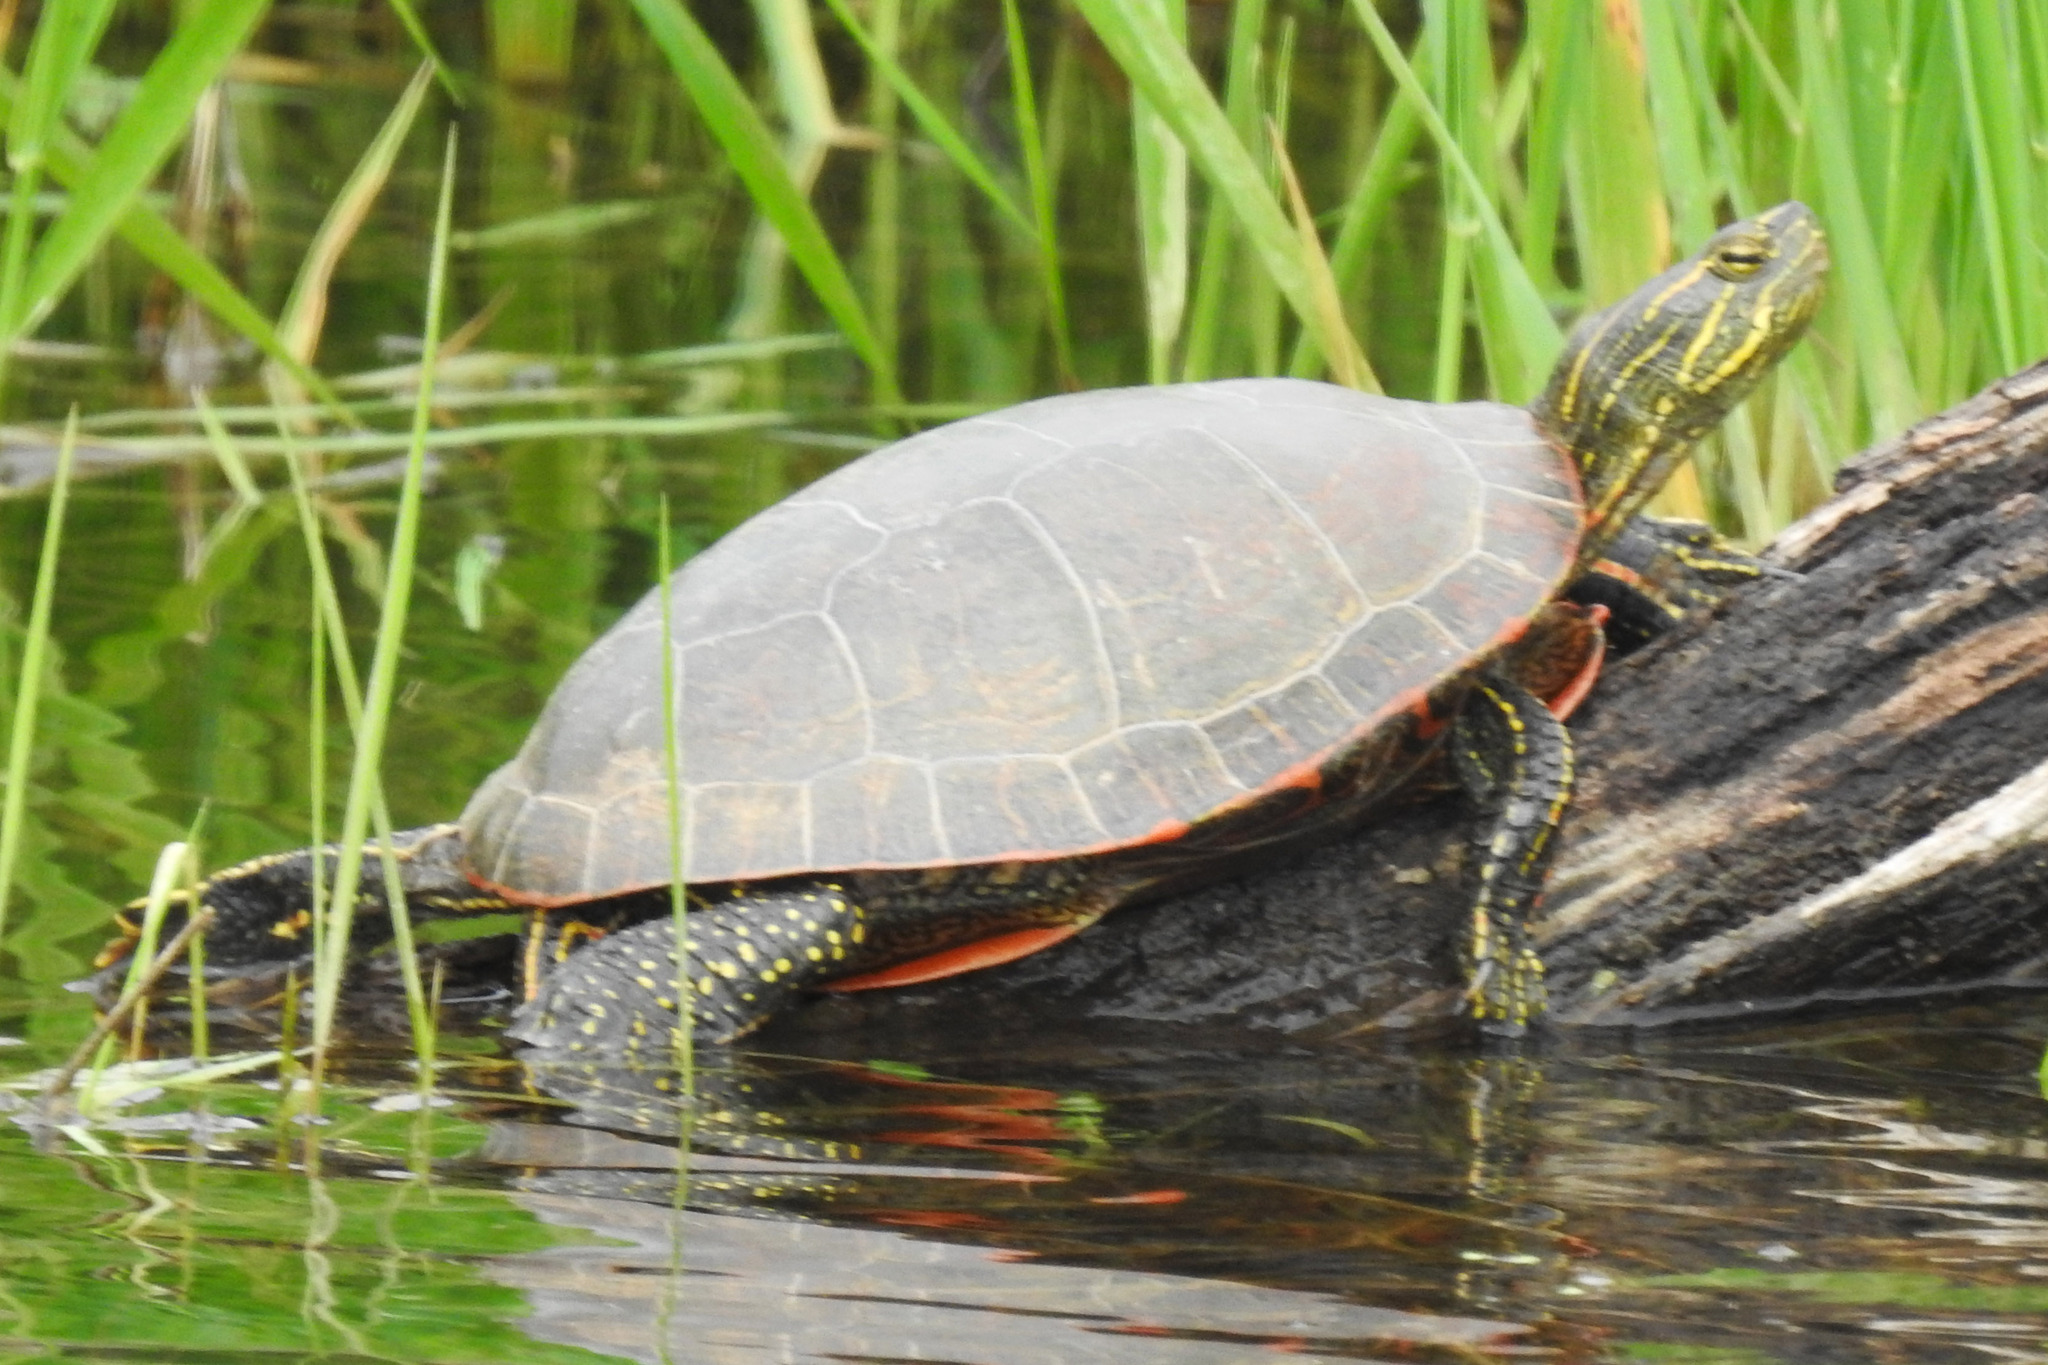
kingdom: Animalia
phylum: Chordata
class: Testudines
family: Emydidae
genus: Chrysemys
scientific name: Chrysemys picta
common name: Painted turtle
